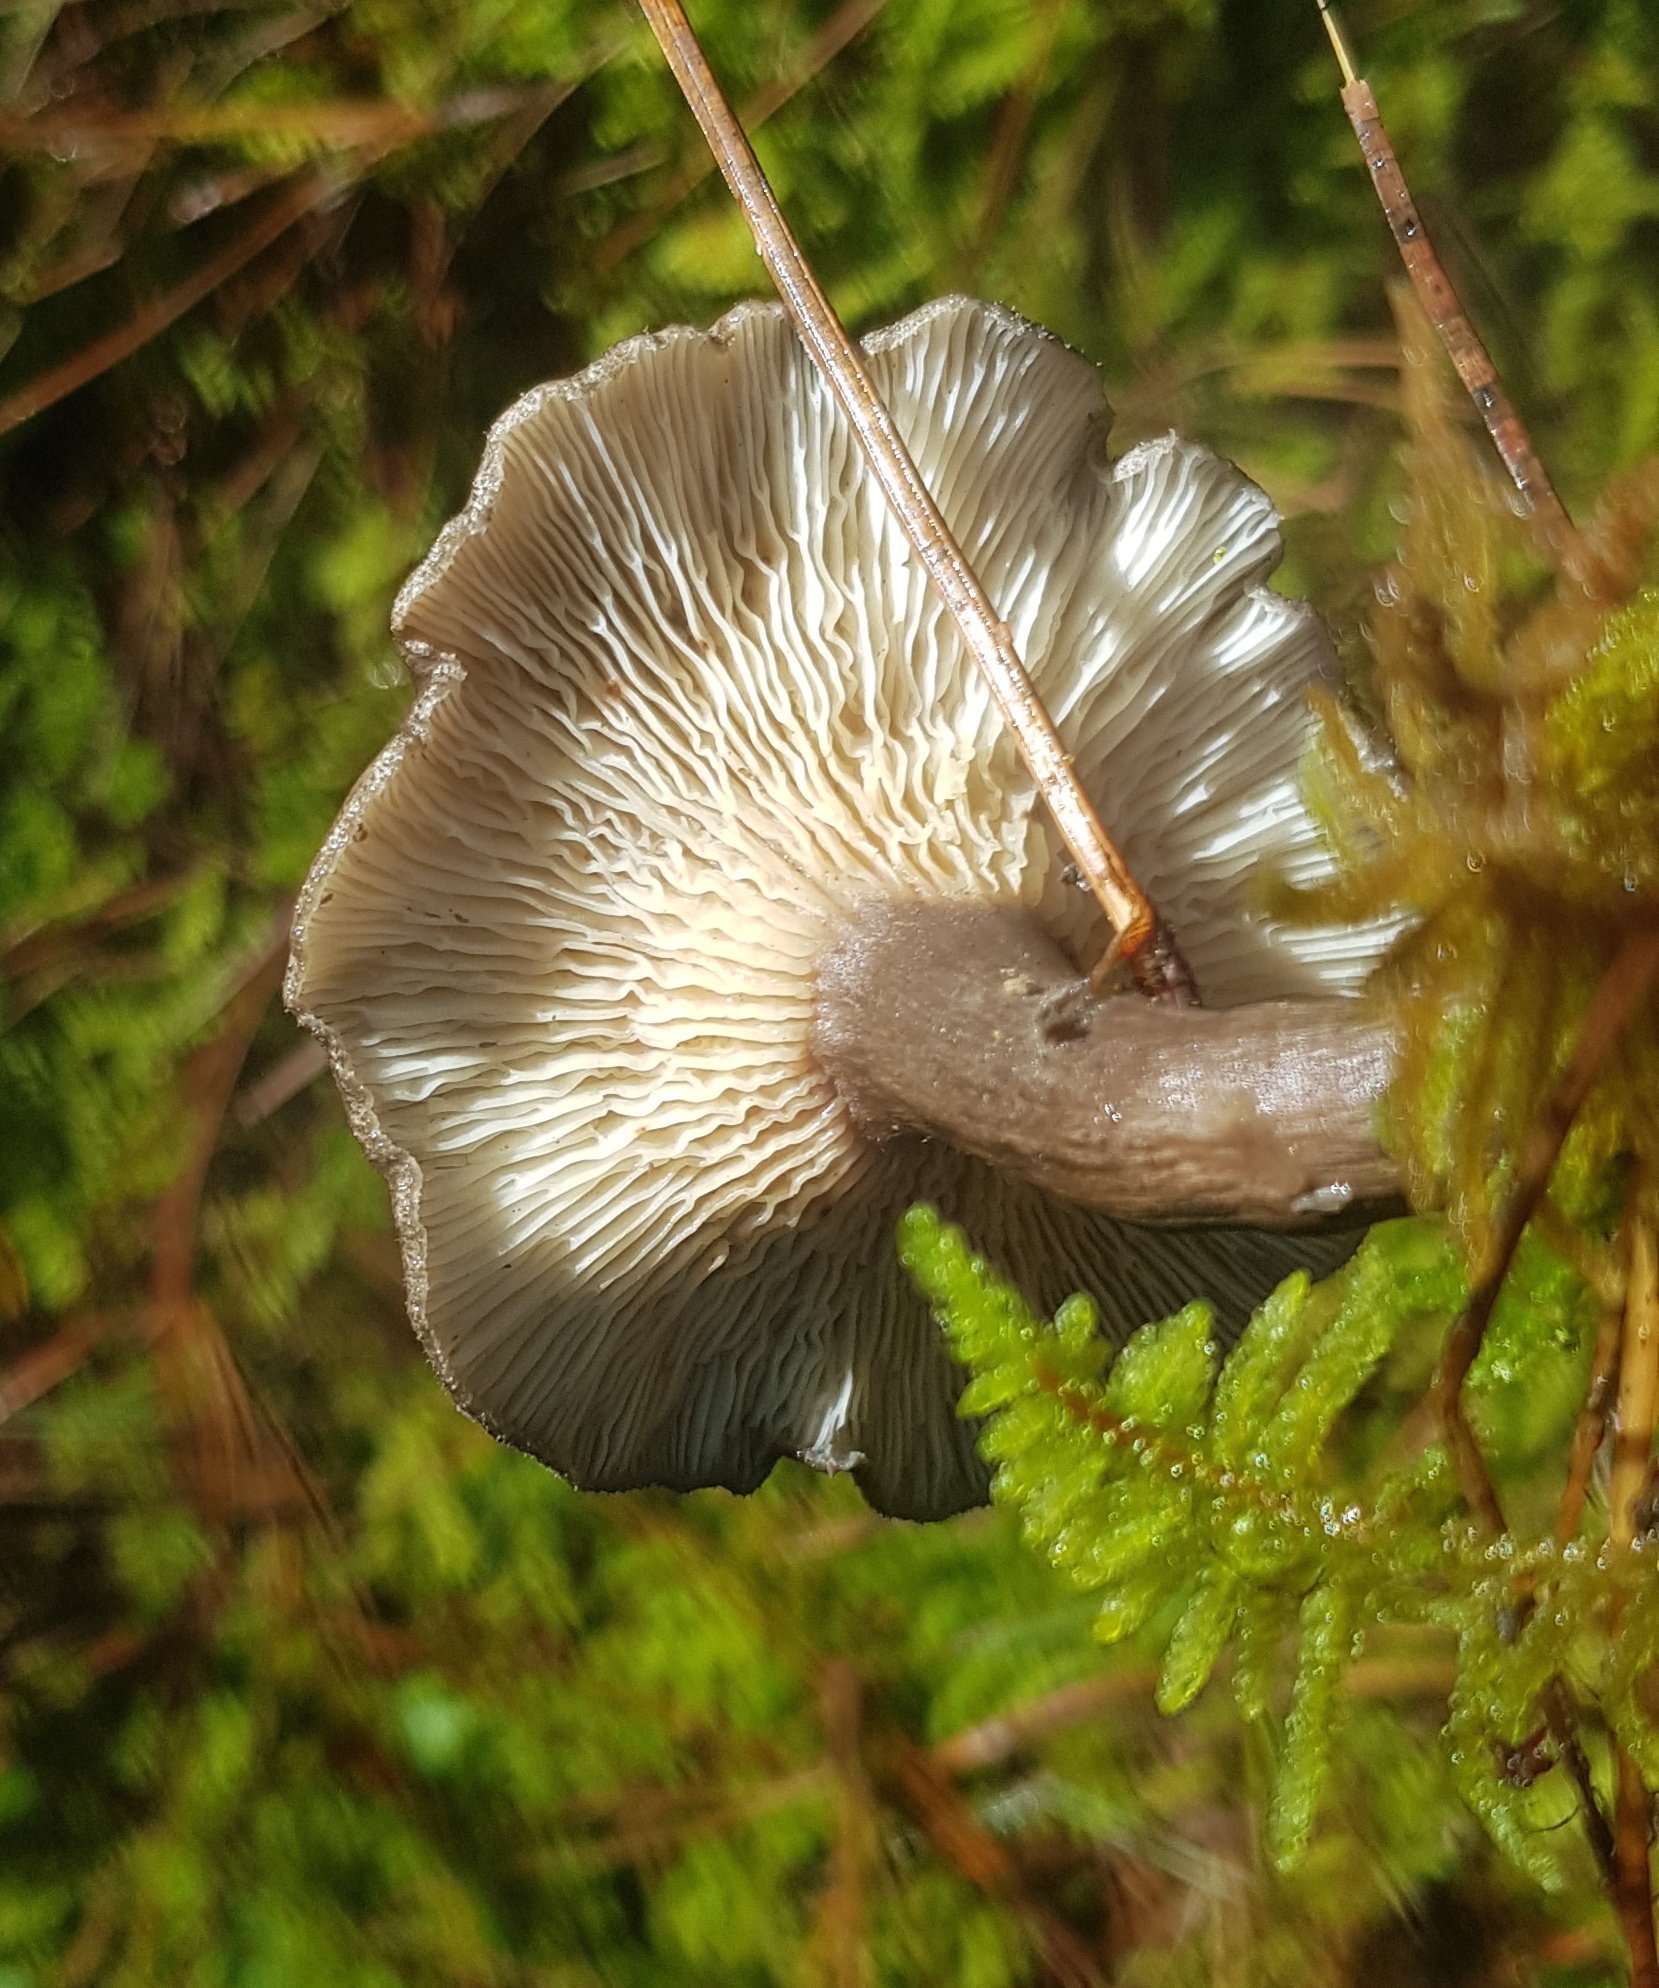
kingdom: Fungi
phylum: Basidiomycota
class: Agaricomycetes
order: Agaricales
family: Hygrophoraceae
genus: Ampulloclitocybe
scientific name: Ampulloclitocybe clavipes
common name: Club foot
